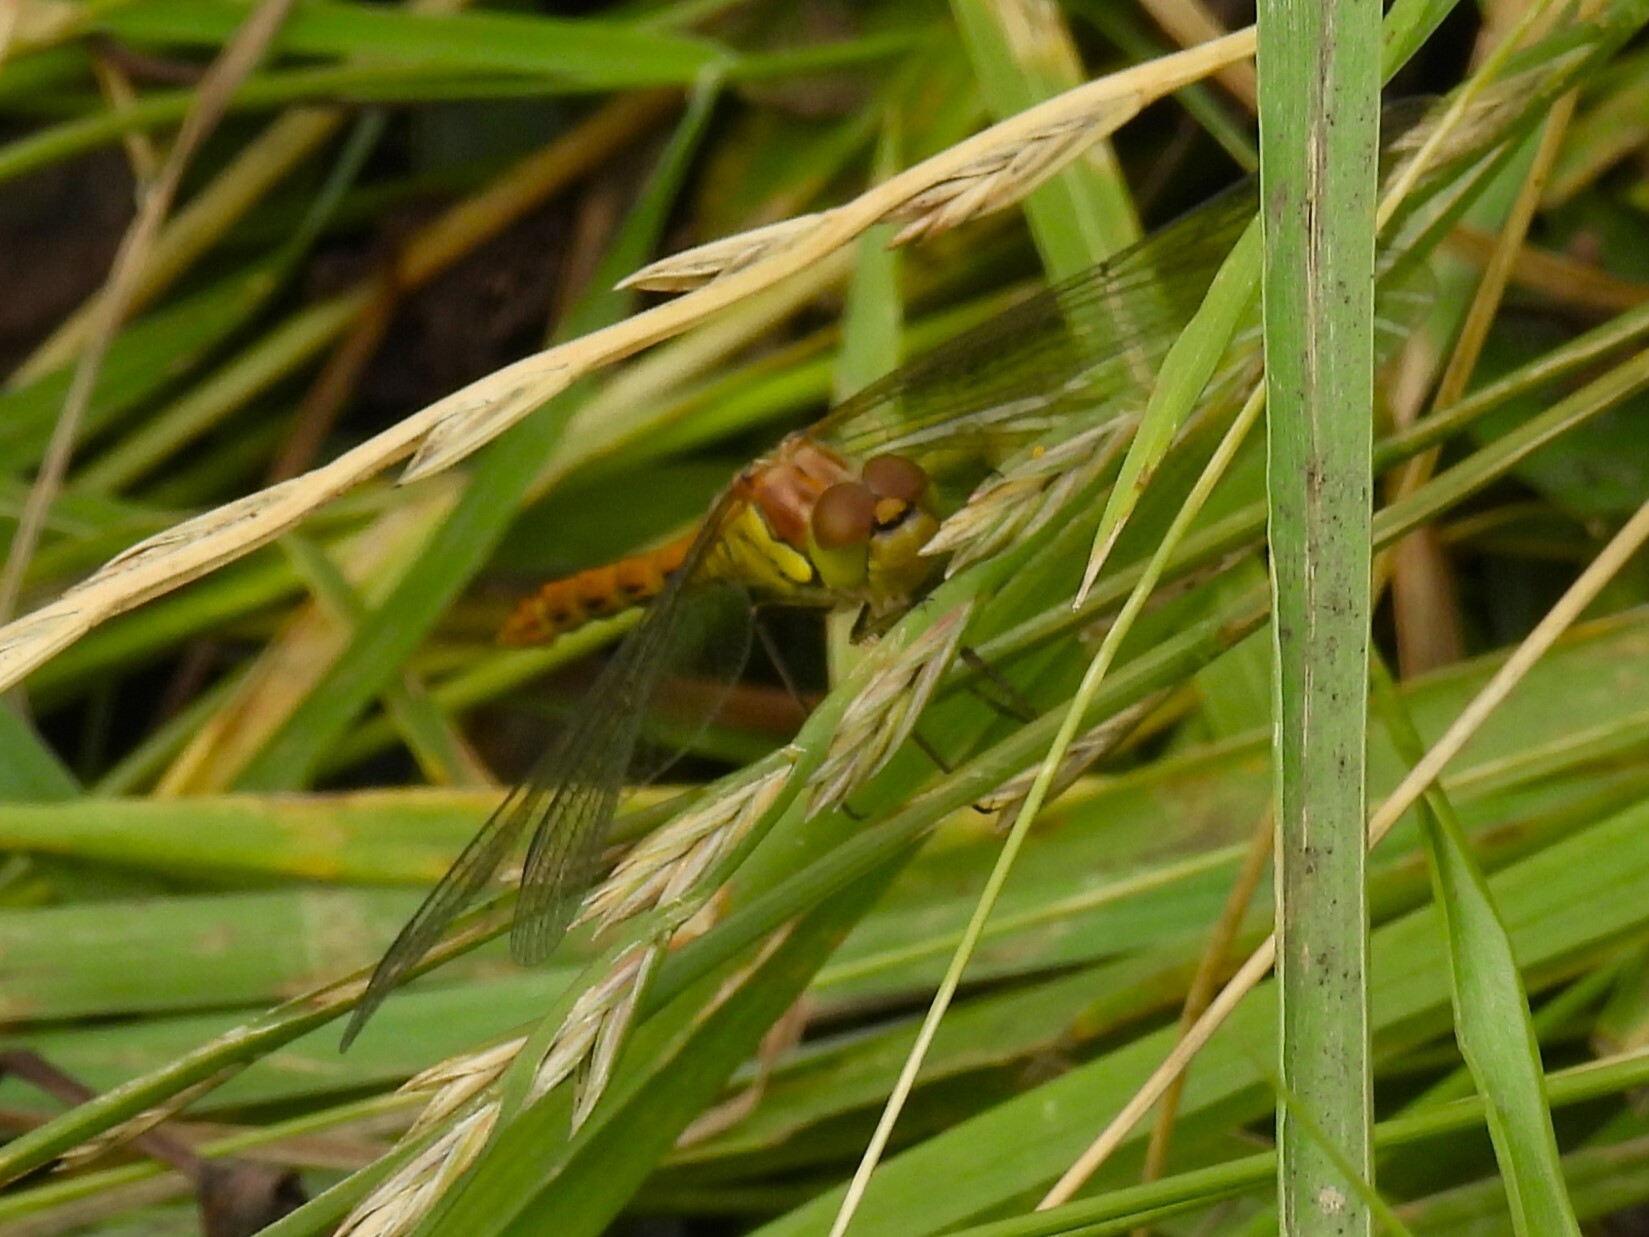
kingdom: Animalia
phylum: Arthropoda
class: Insecta
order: Odonata
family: Libellulidae
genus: Sympetrum
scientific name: Sympetrum striolatum
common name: Common darter
